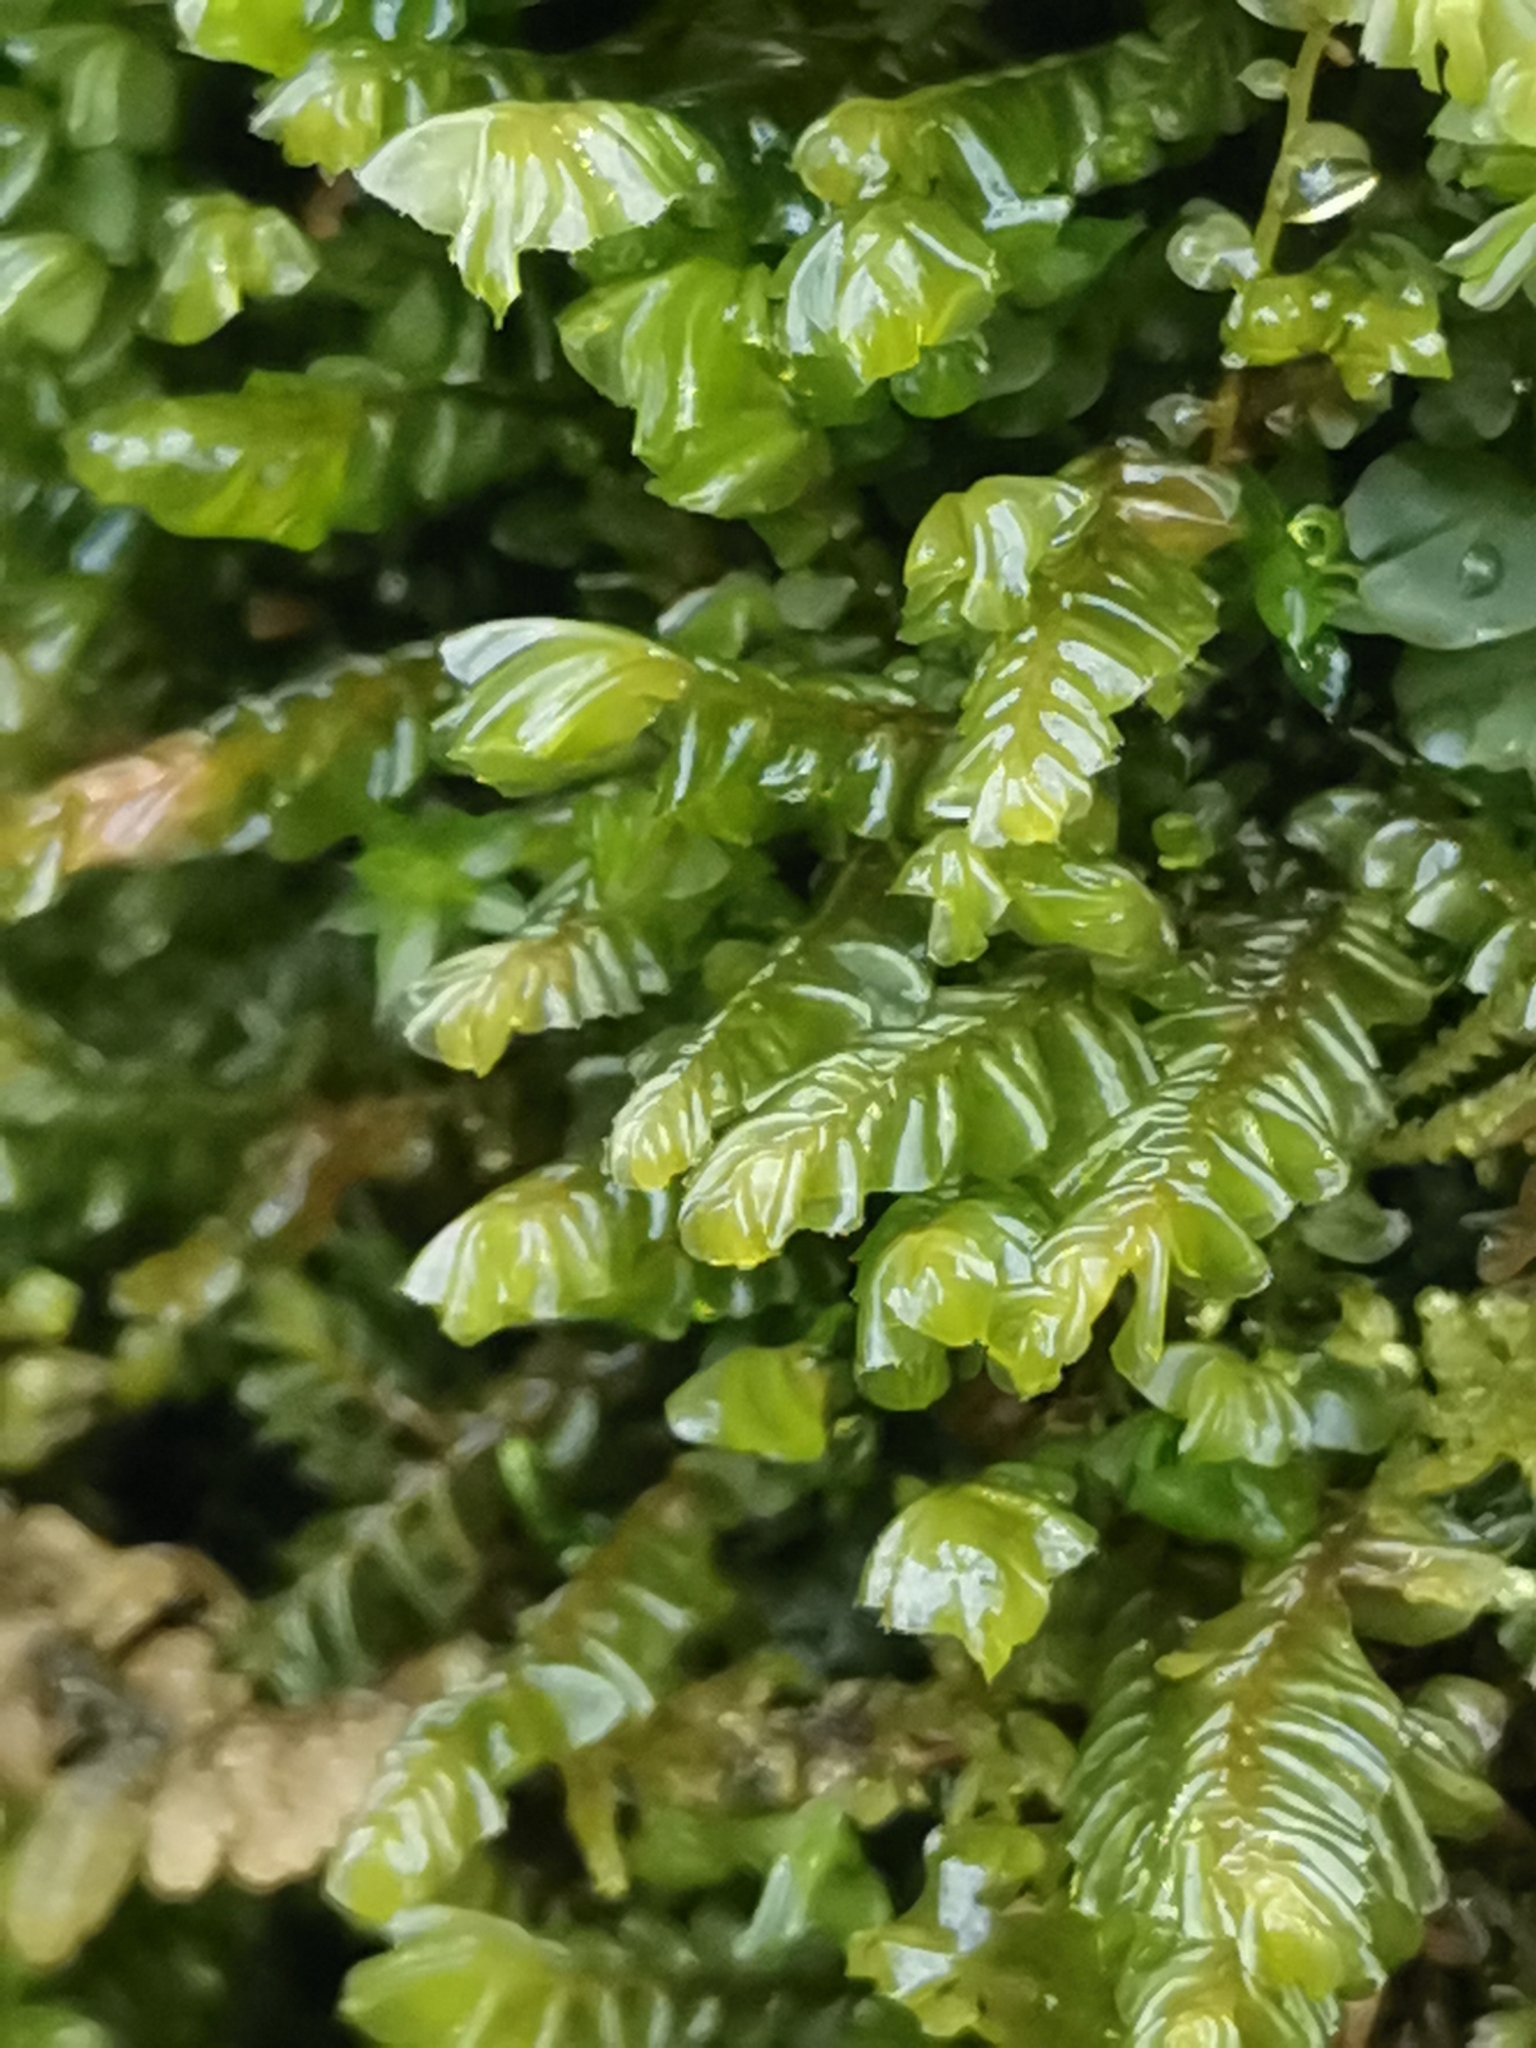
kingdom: Plantae
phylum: Marchantiophyta
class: Jungermanniopsida
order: Jungermanniales
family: Plagiochilaceae
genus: Plagiochila
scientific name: Plagiochila porelloides
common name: Lesser featherwort
